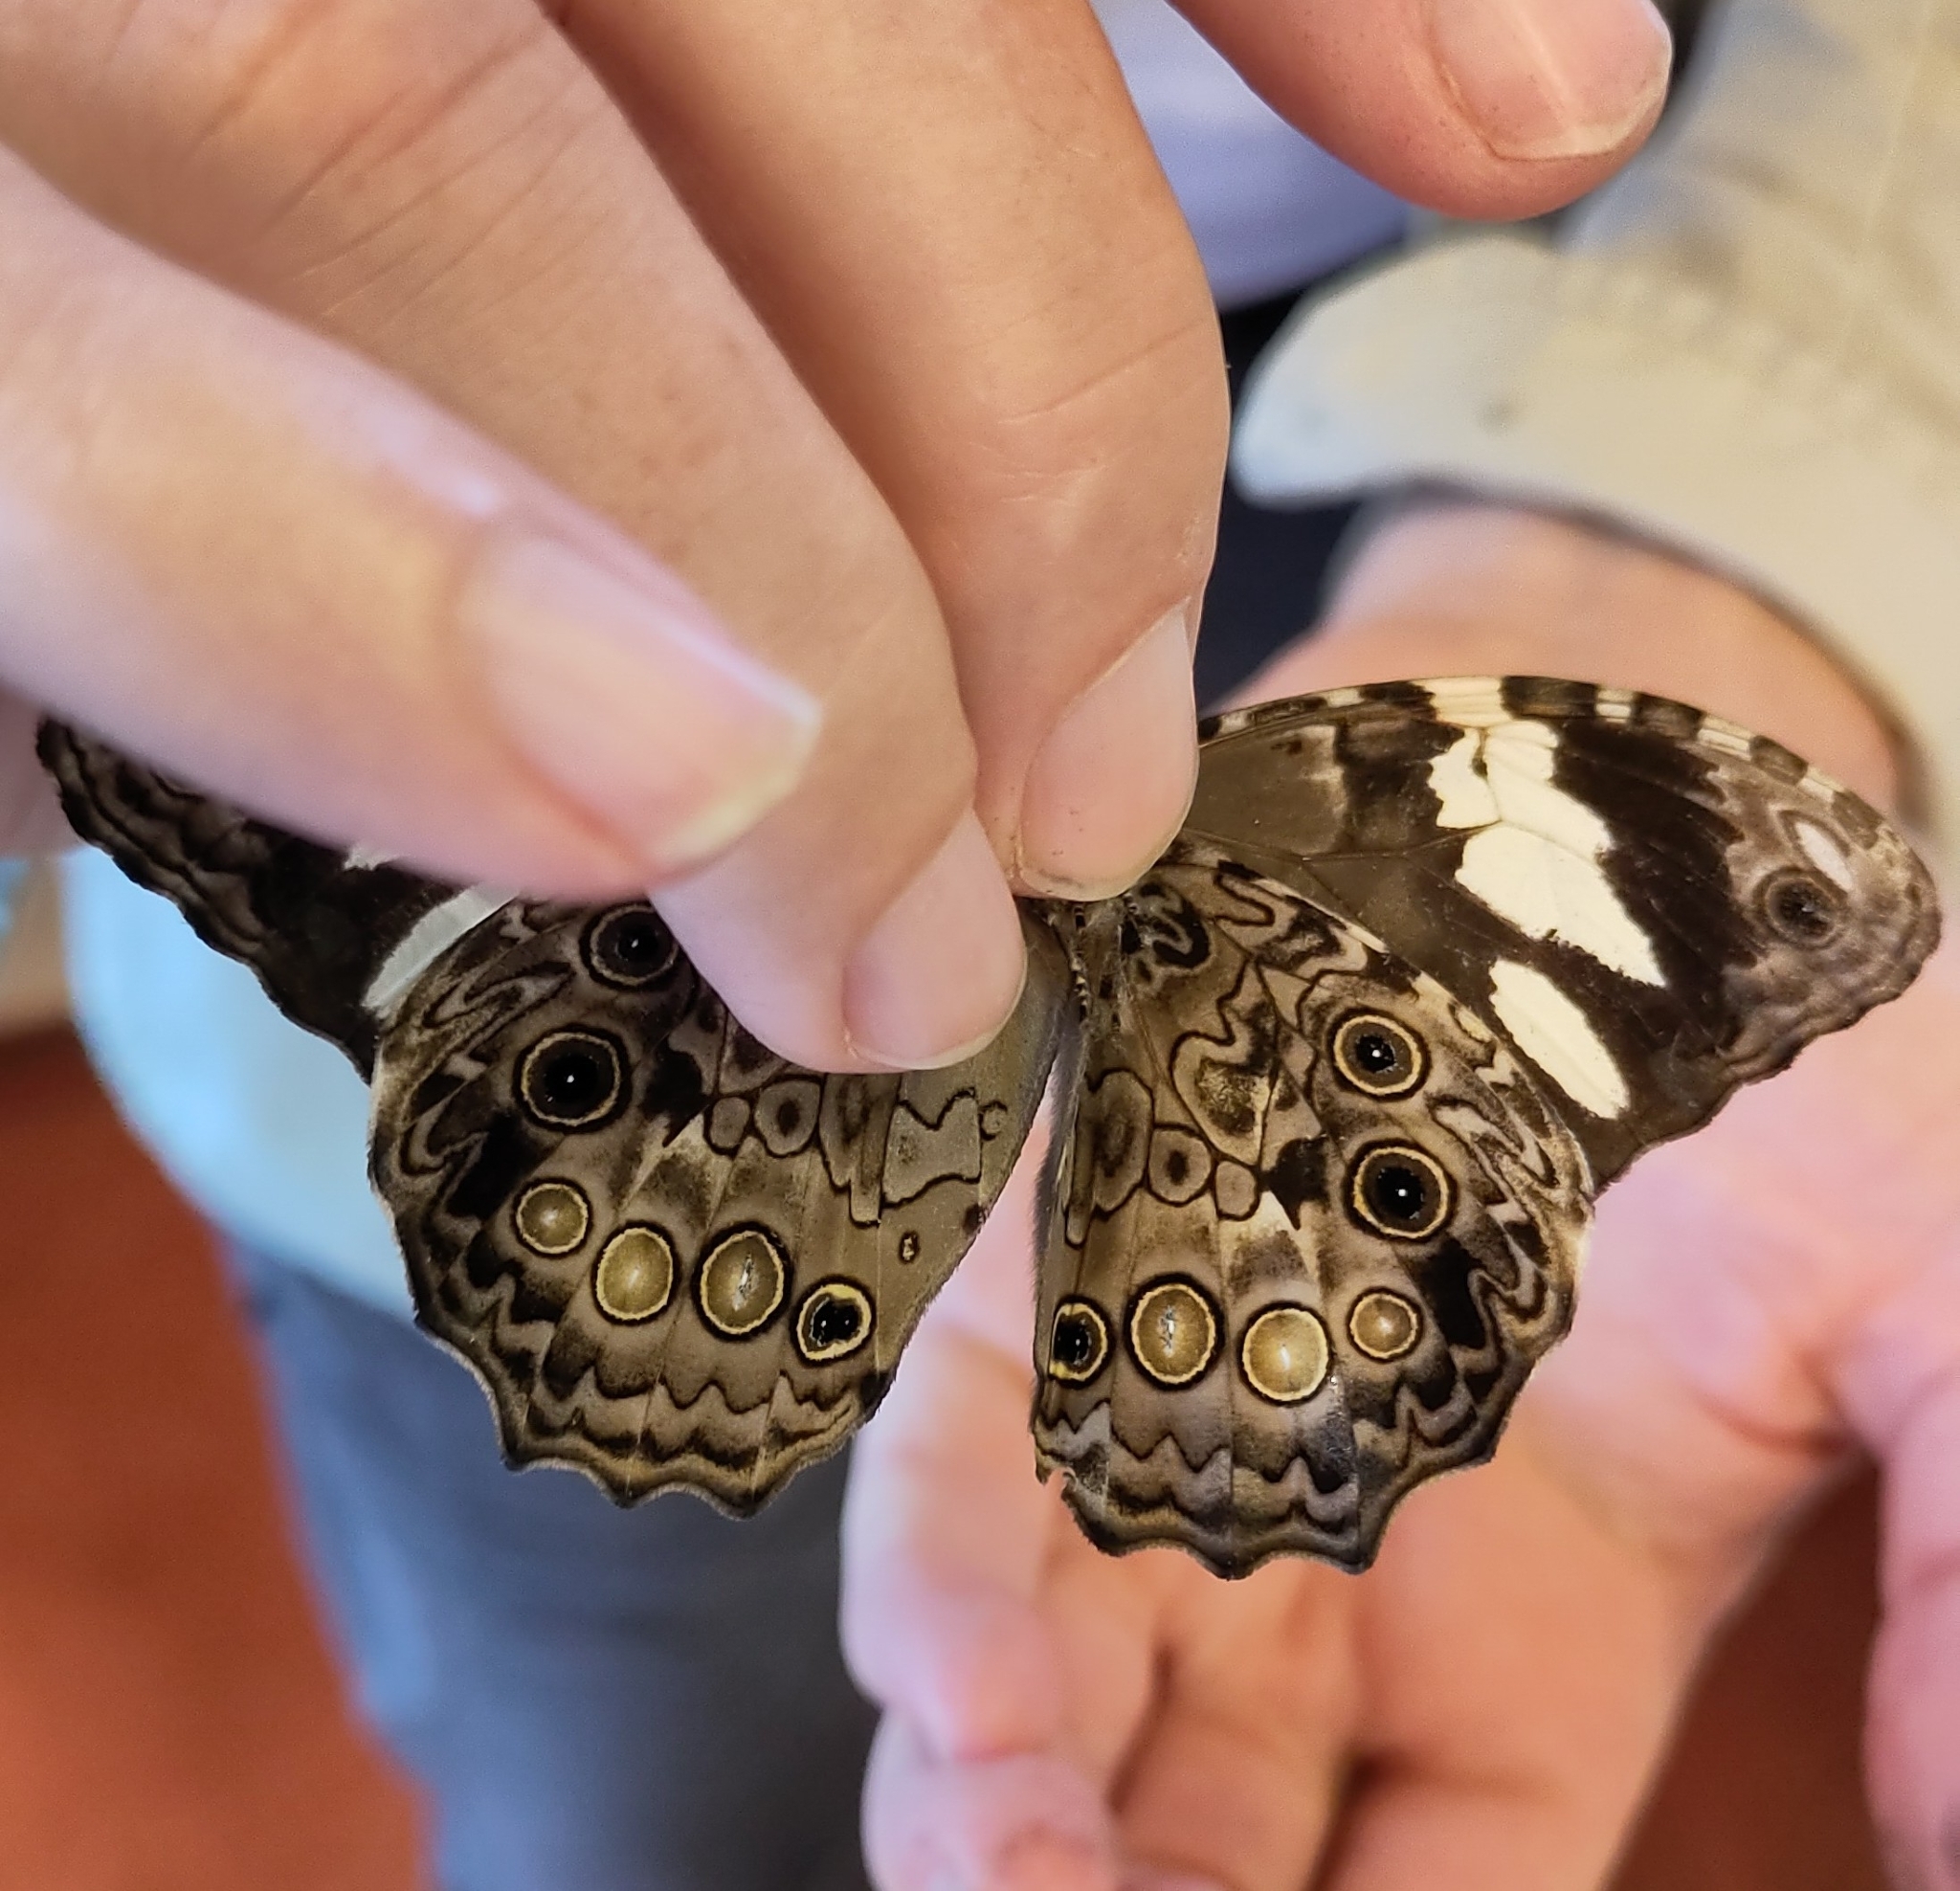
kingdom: Animalia
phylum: Arthropoda
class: Insecta
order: Lepidoptera
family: Nymphalidae
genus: Manataria
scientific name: Manataria hercyna
